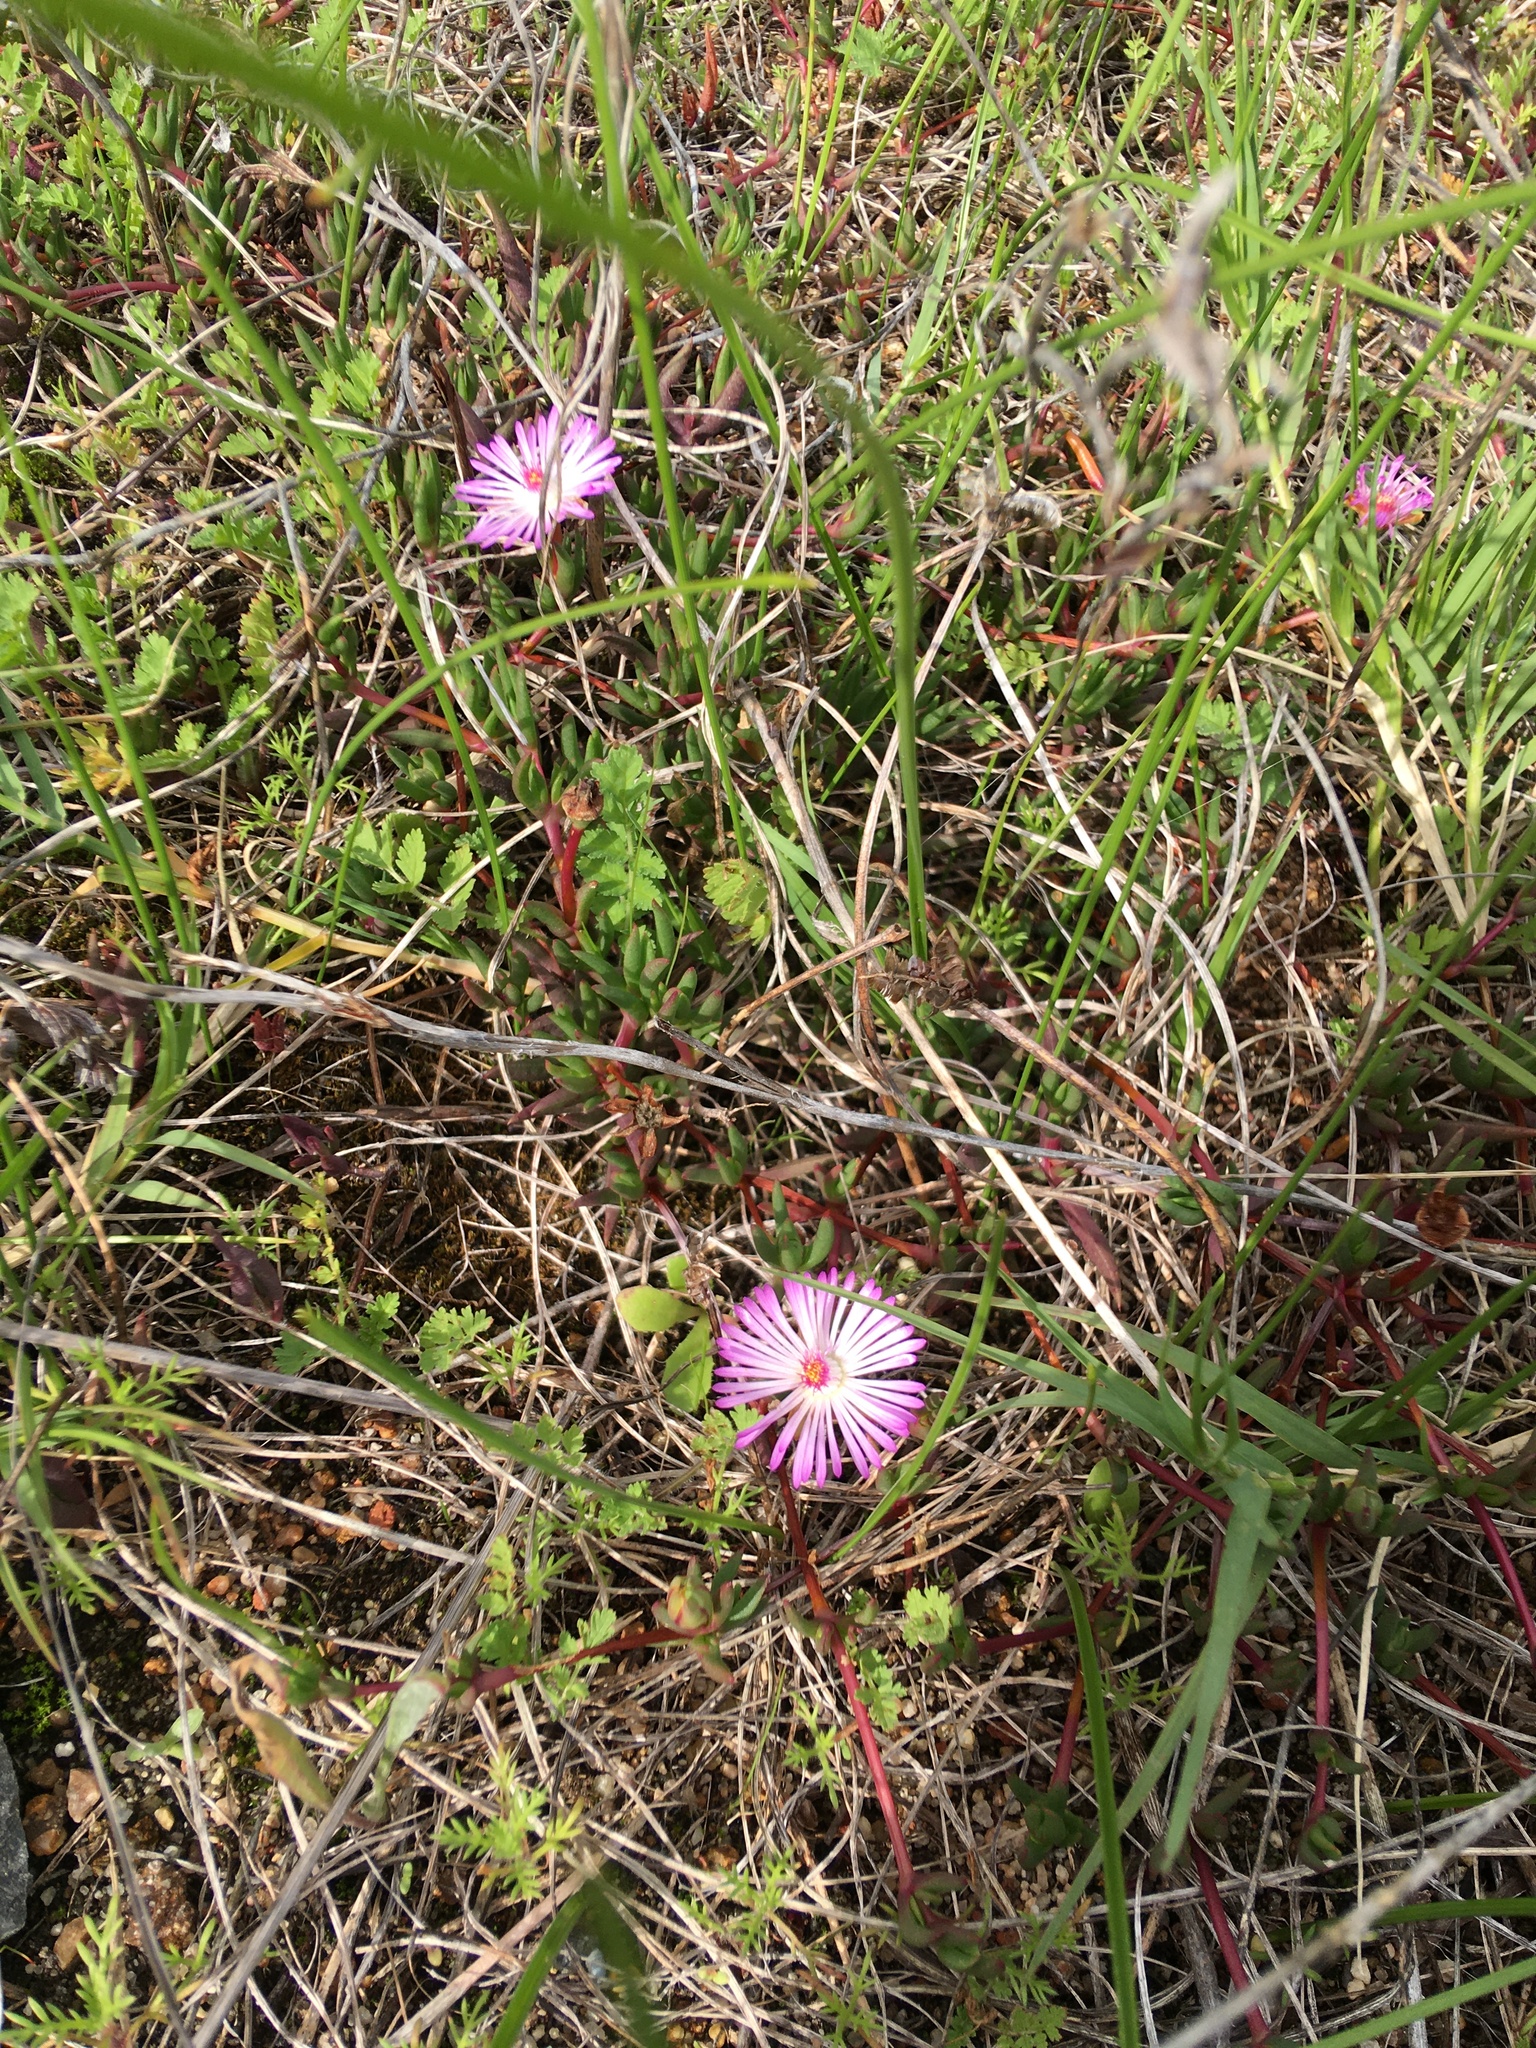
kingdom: Plantae
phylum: Tracheophyta
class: Magnoliopsida
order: Caryophyllales
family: Aizoaceae
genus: Lampranthus
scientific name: Lampranthus filicaulis
